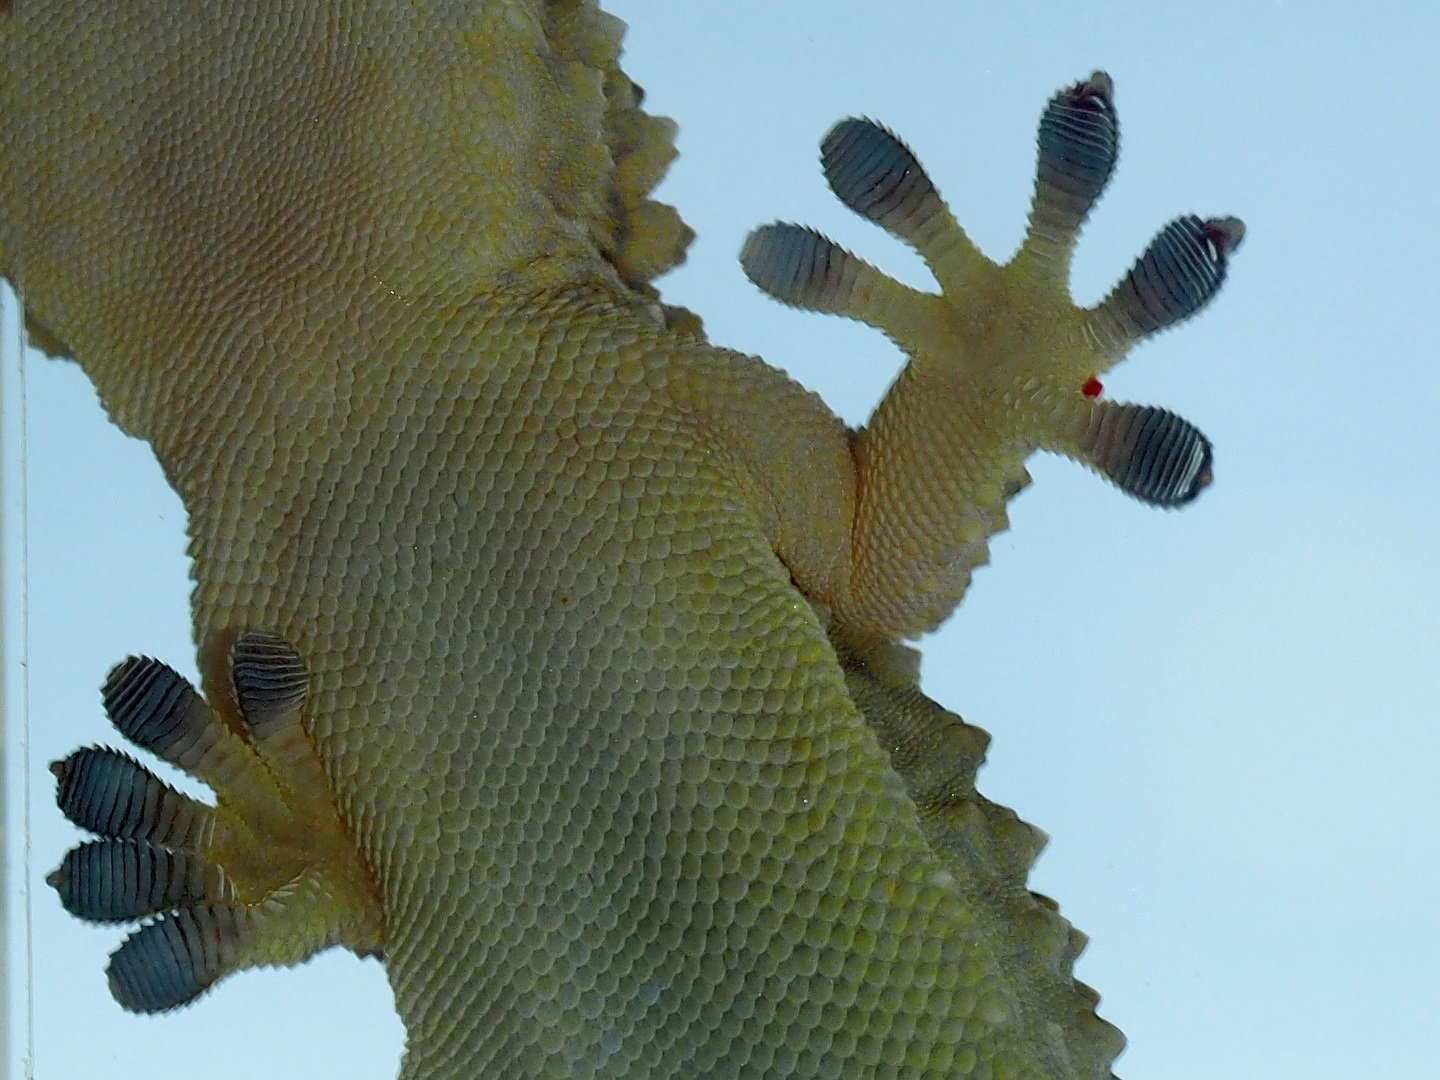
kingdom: Animalia
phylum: Chordata
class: Squamata
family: Phyllodactylidae
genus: Tarentola
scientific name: Tarentola mauritanica
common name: Moorish gecko
